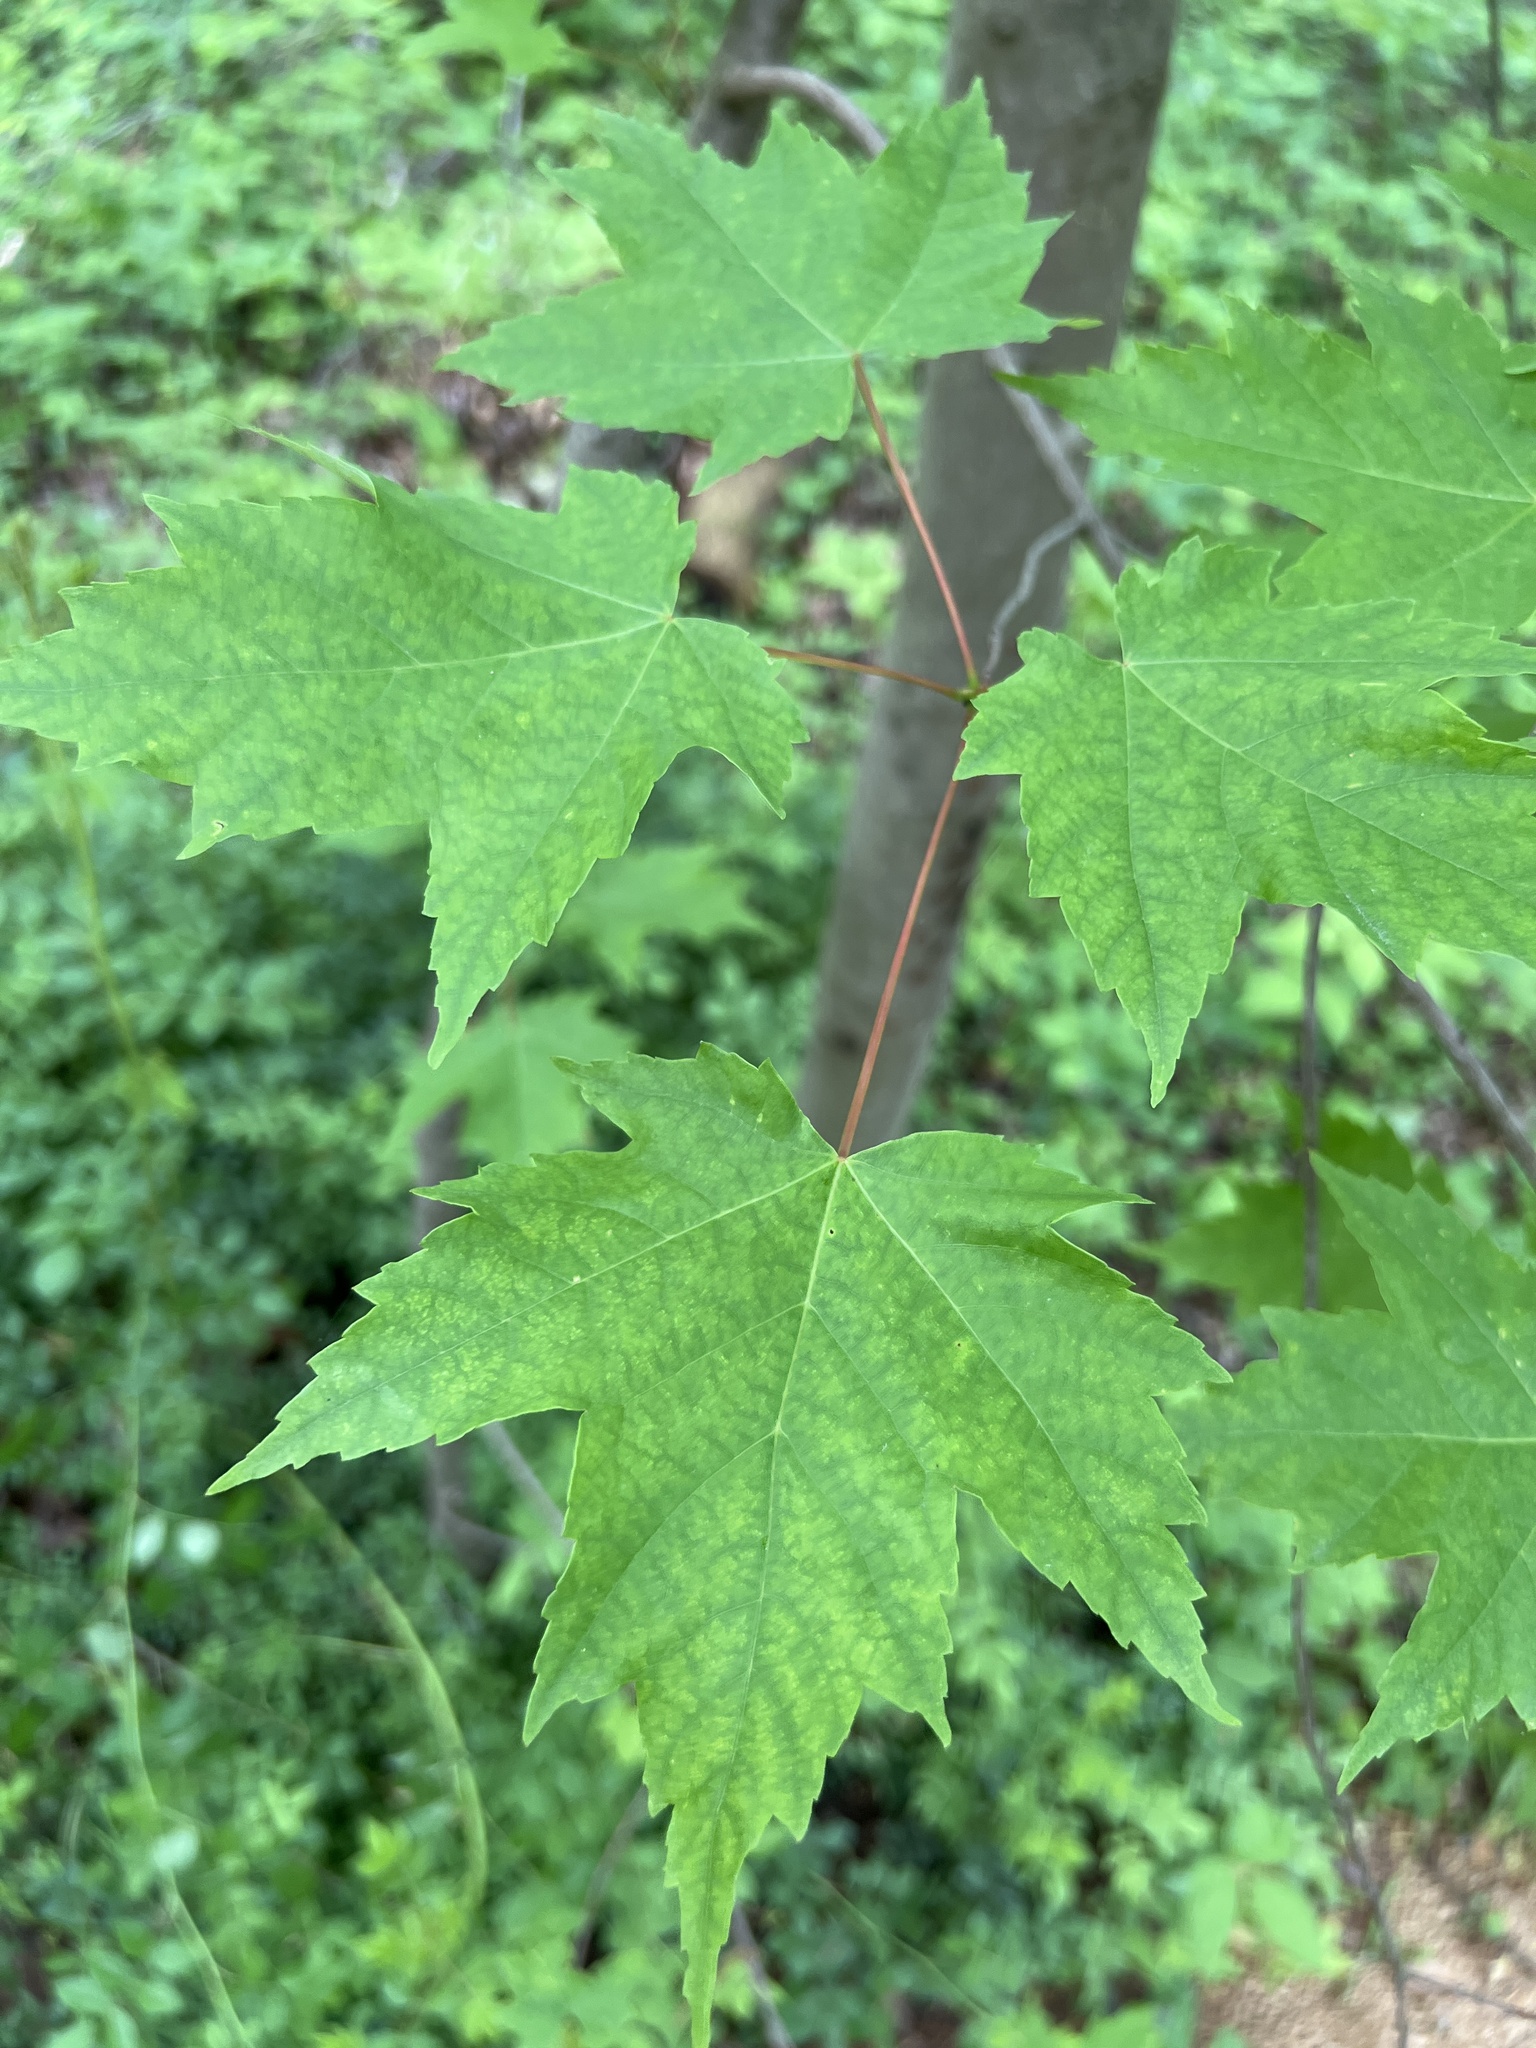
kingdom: Plantae
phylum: Tracheophyta
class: Magnoliopsida
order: Sapindales
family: Sapindaceae
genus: Acer
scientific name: Acer rubrum
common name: Red maple
